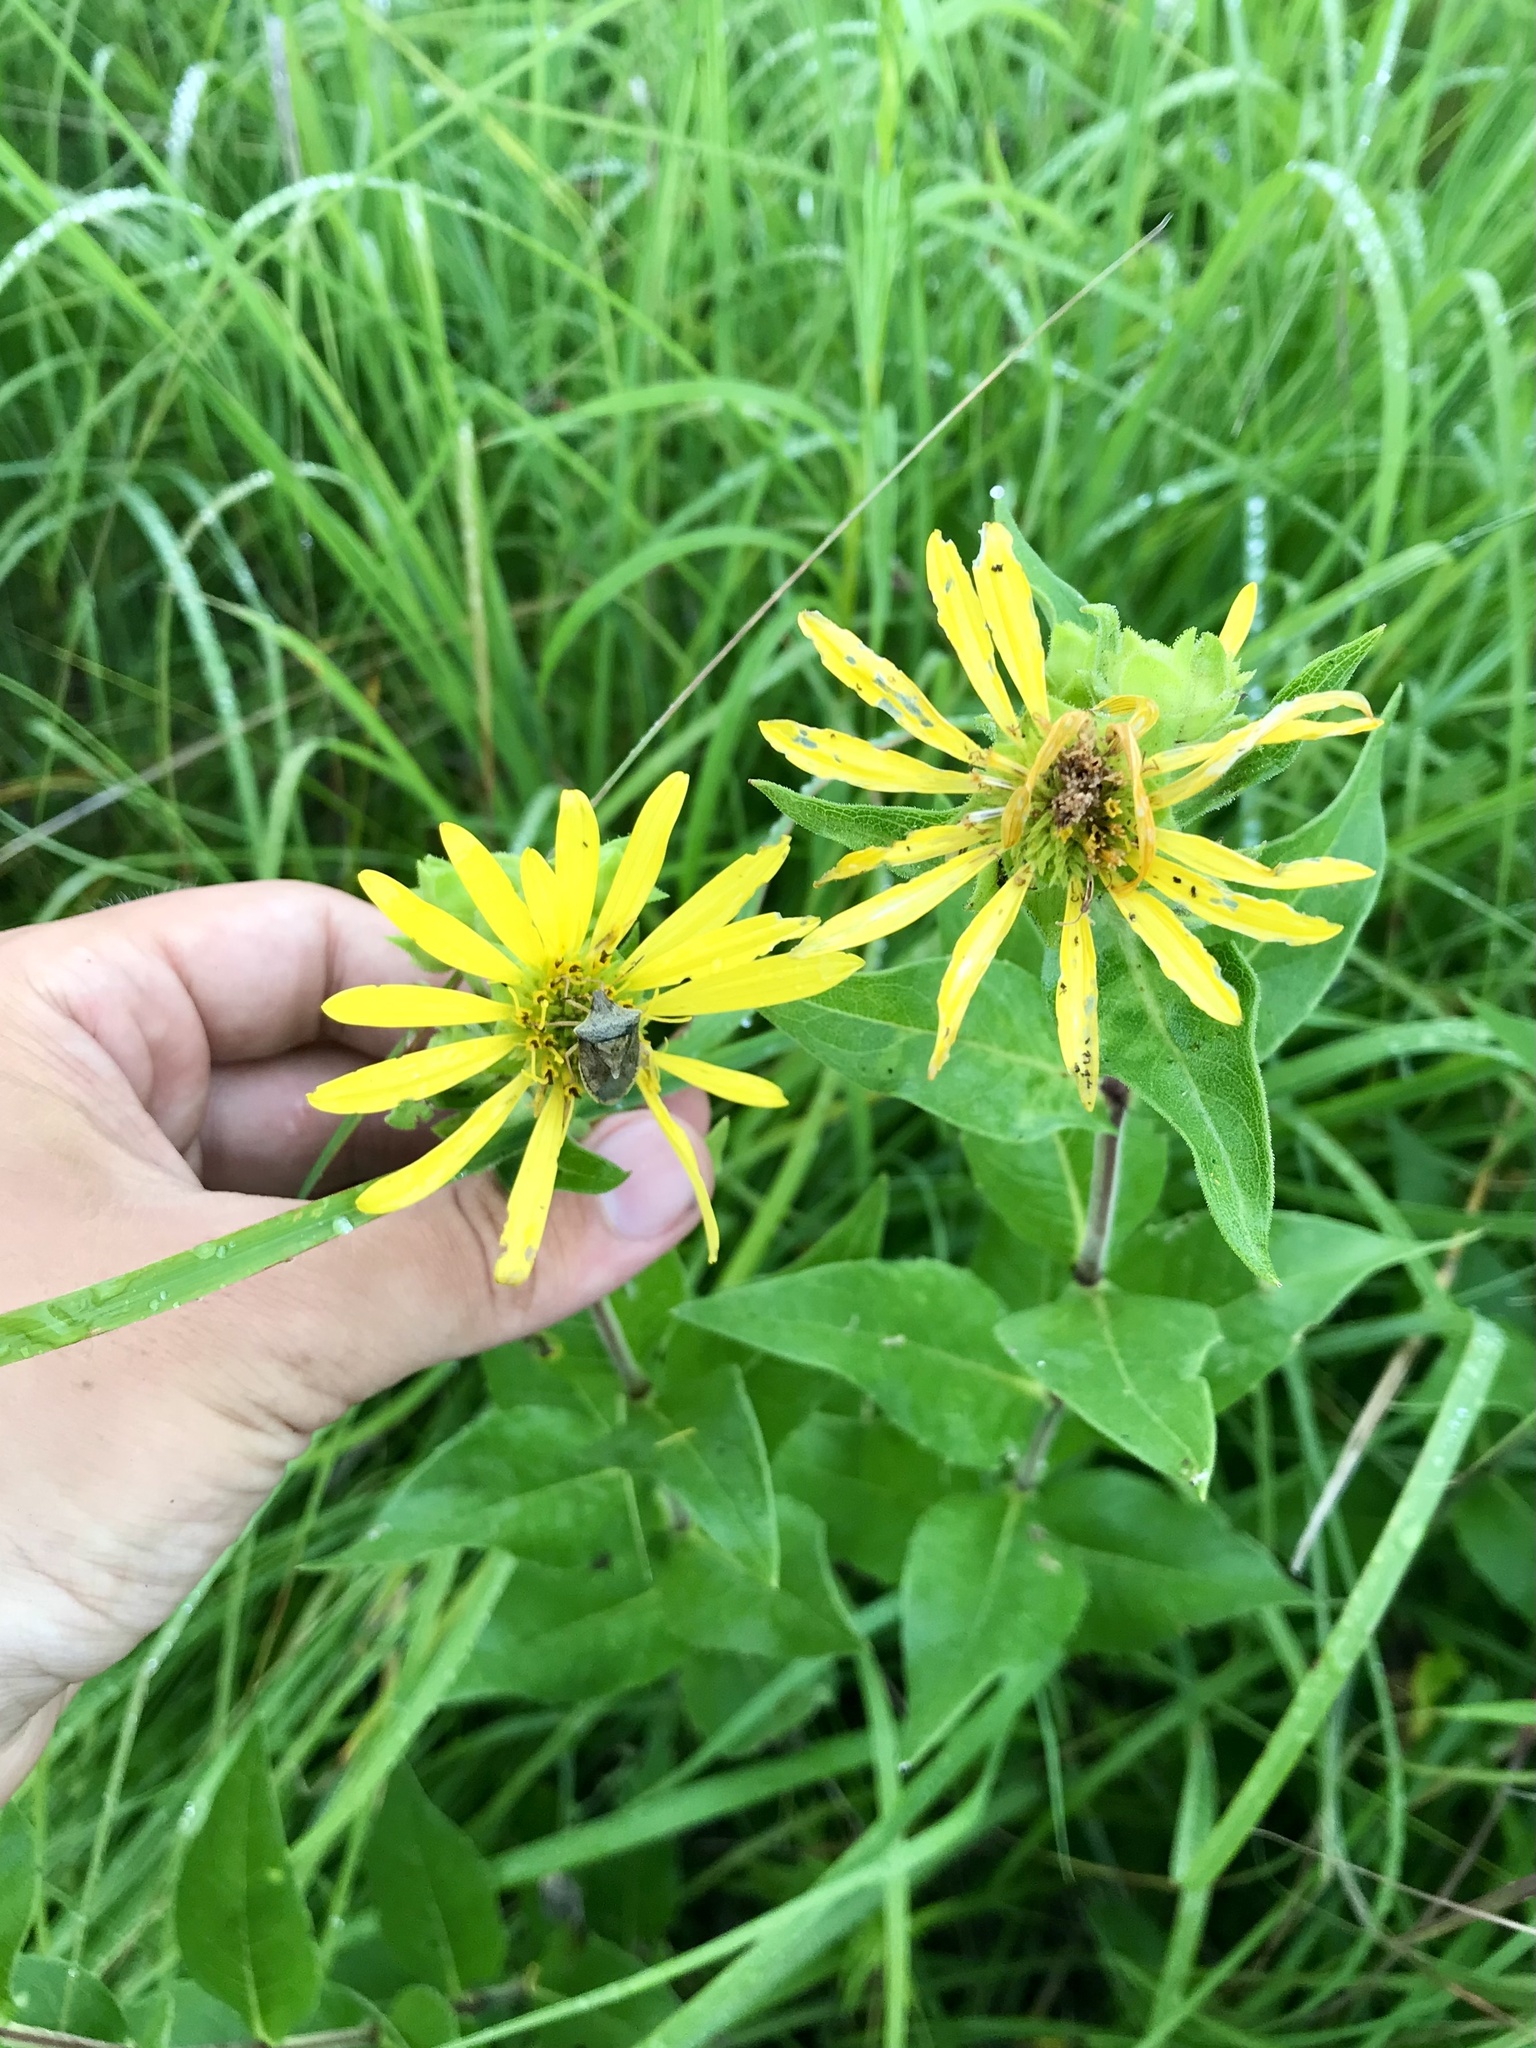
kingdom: Plantae
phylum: Tracheophyta
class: Magnoliopsida
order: Asterales
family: Asteraceae
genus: Silphium
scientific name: Silphium integrifolium
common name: Whole-leaf rosinweed
